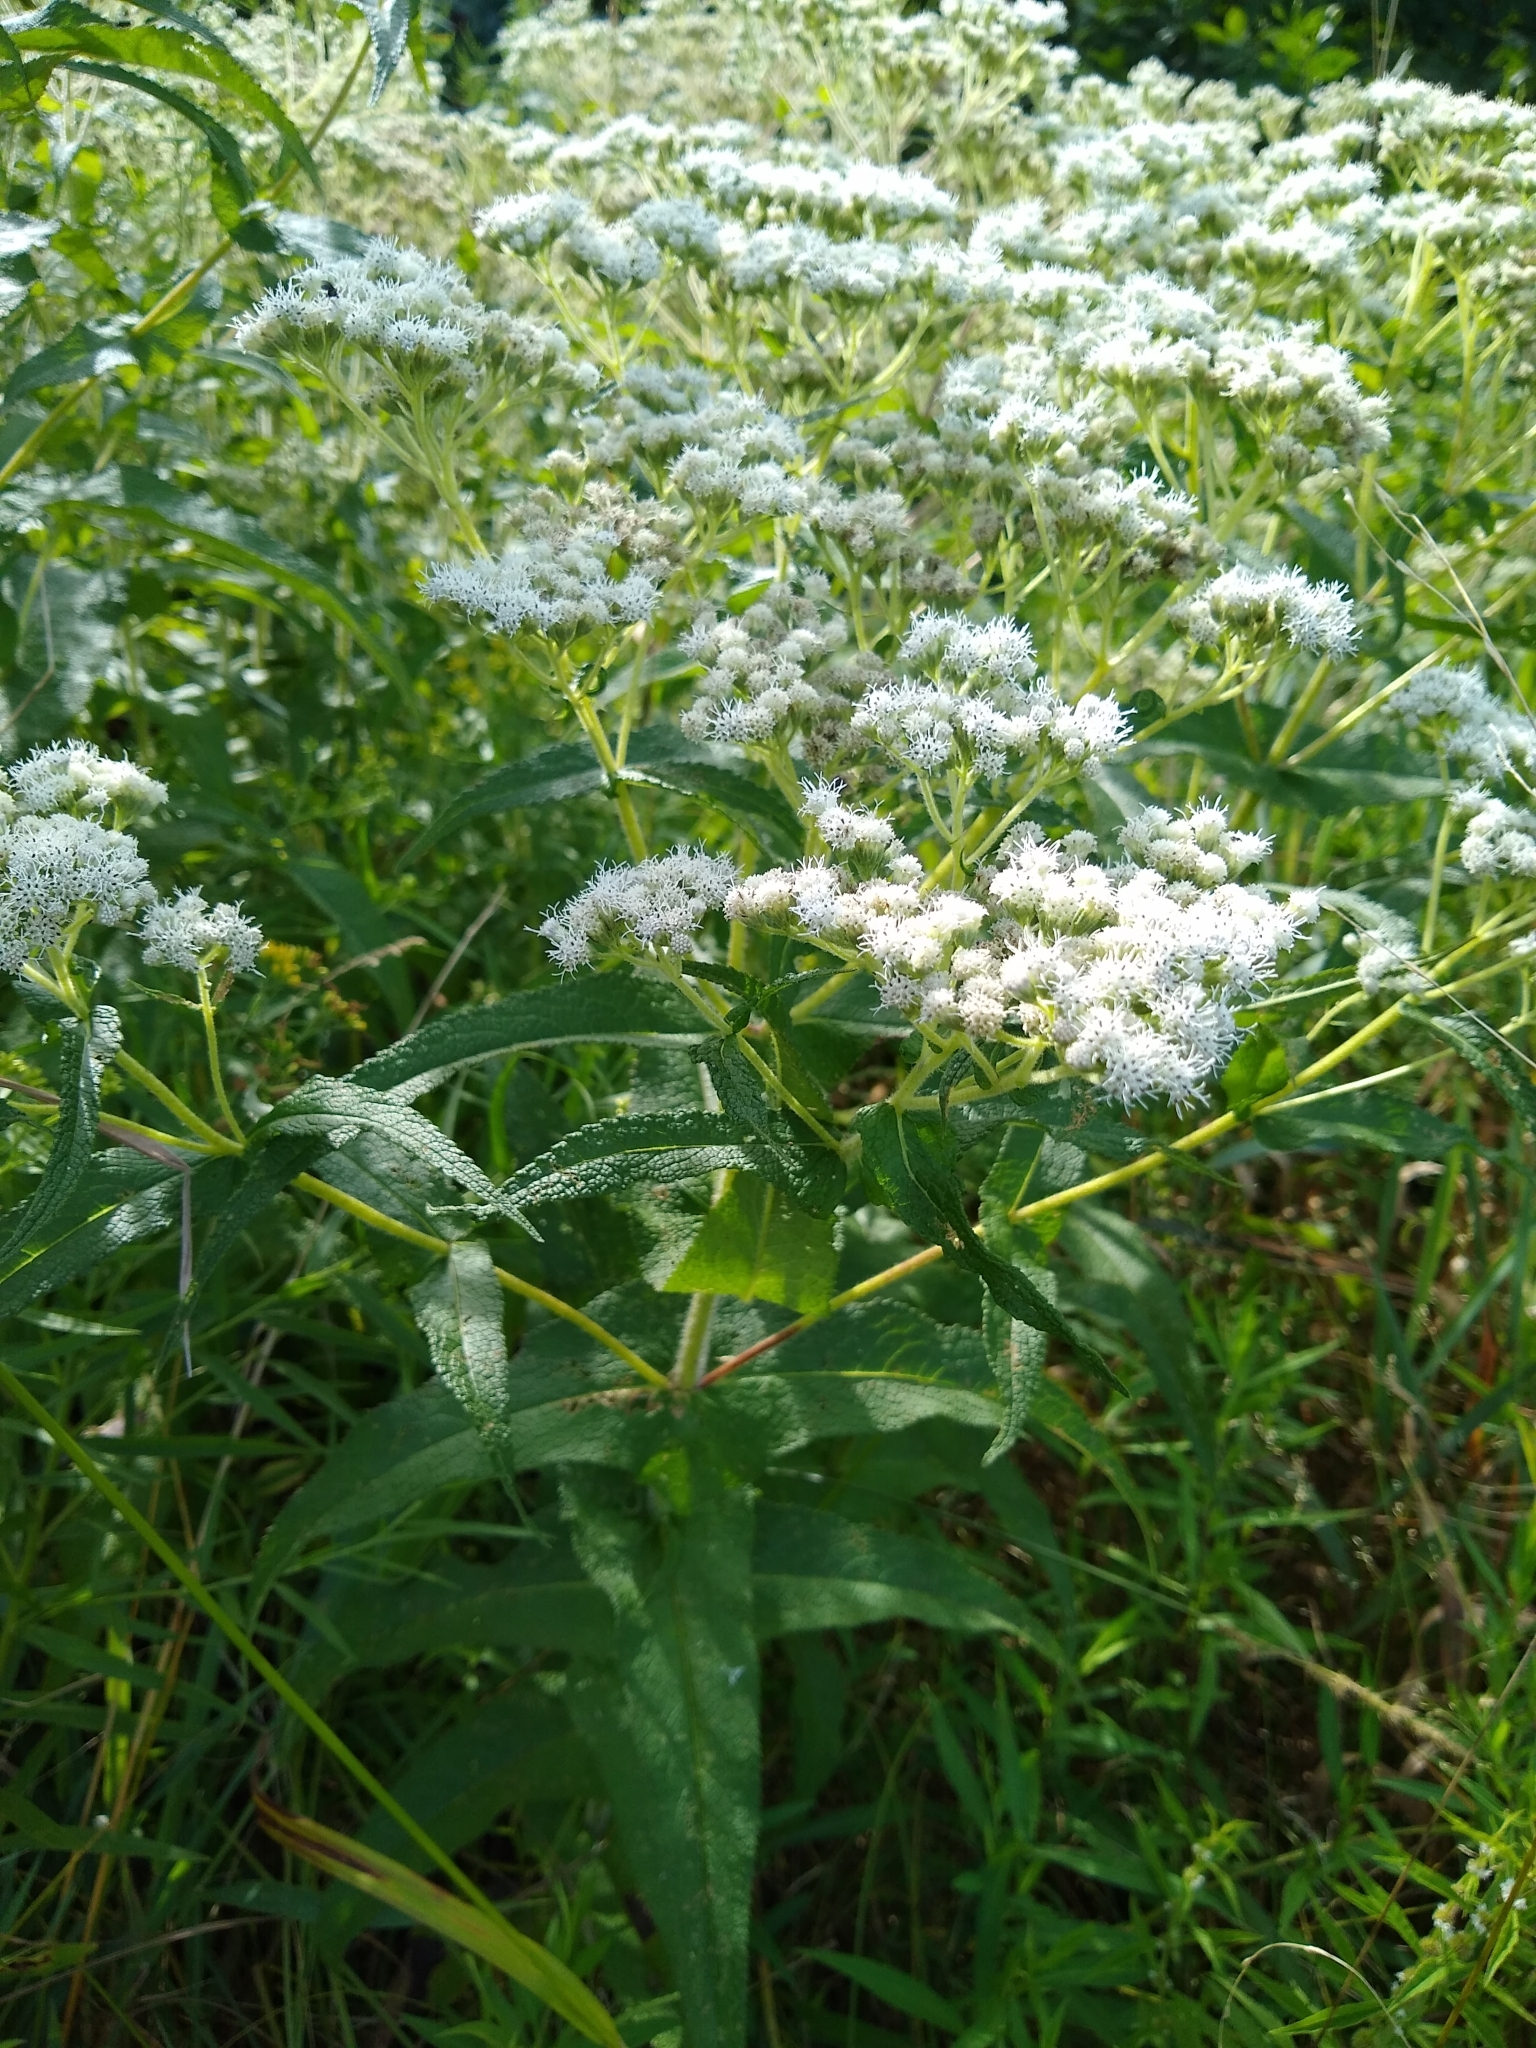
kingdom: Plantae
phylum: Tracheophyta
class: Magnoliopsida
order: Asterales
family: Asteraceae
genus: Eupatorium
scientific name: Eupatorium perfoliatum
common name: Boneset
